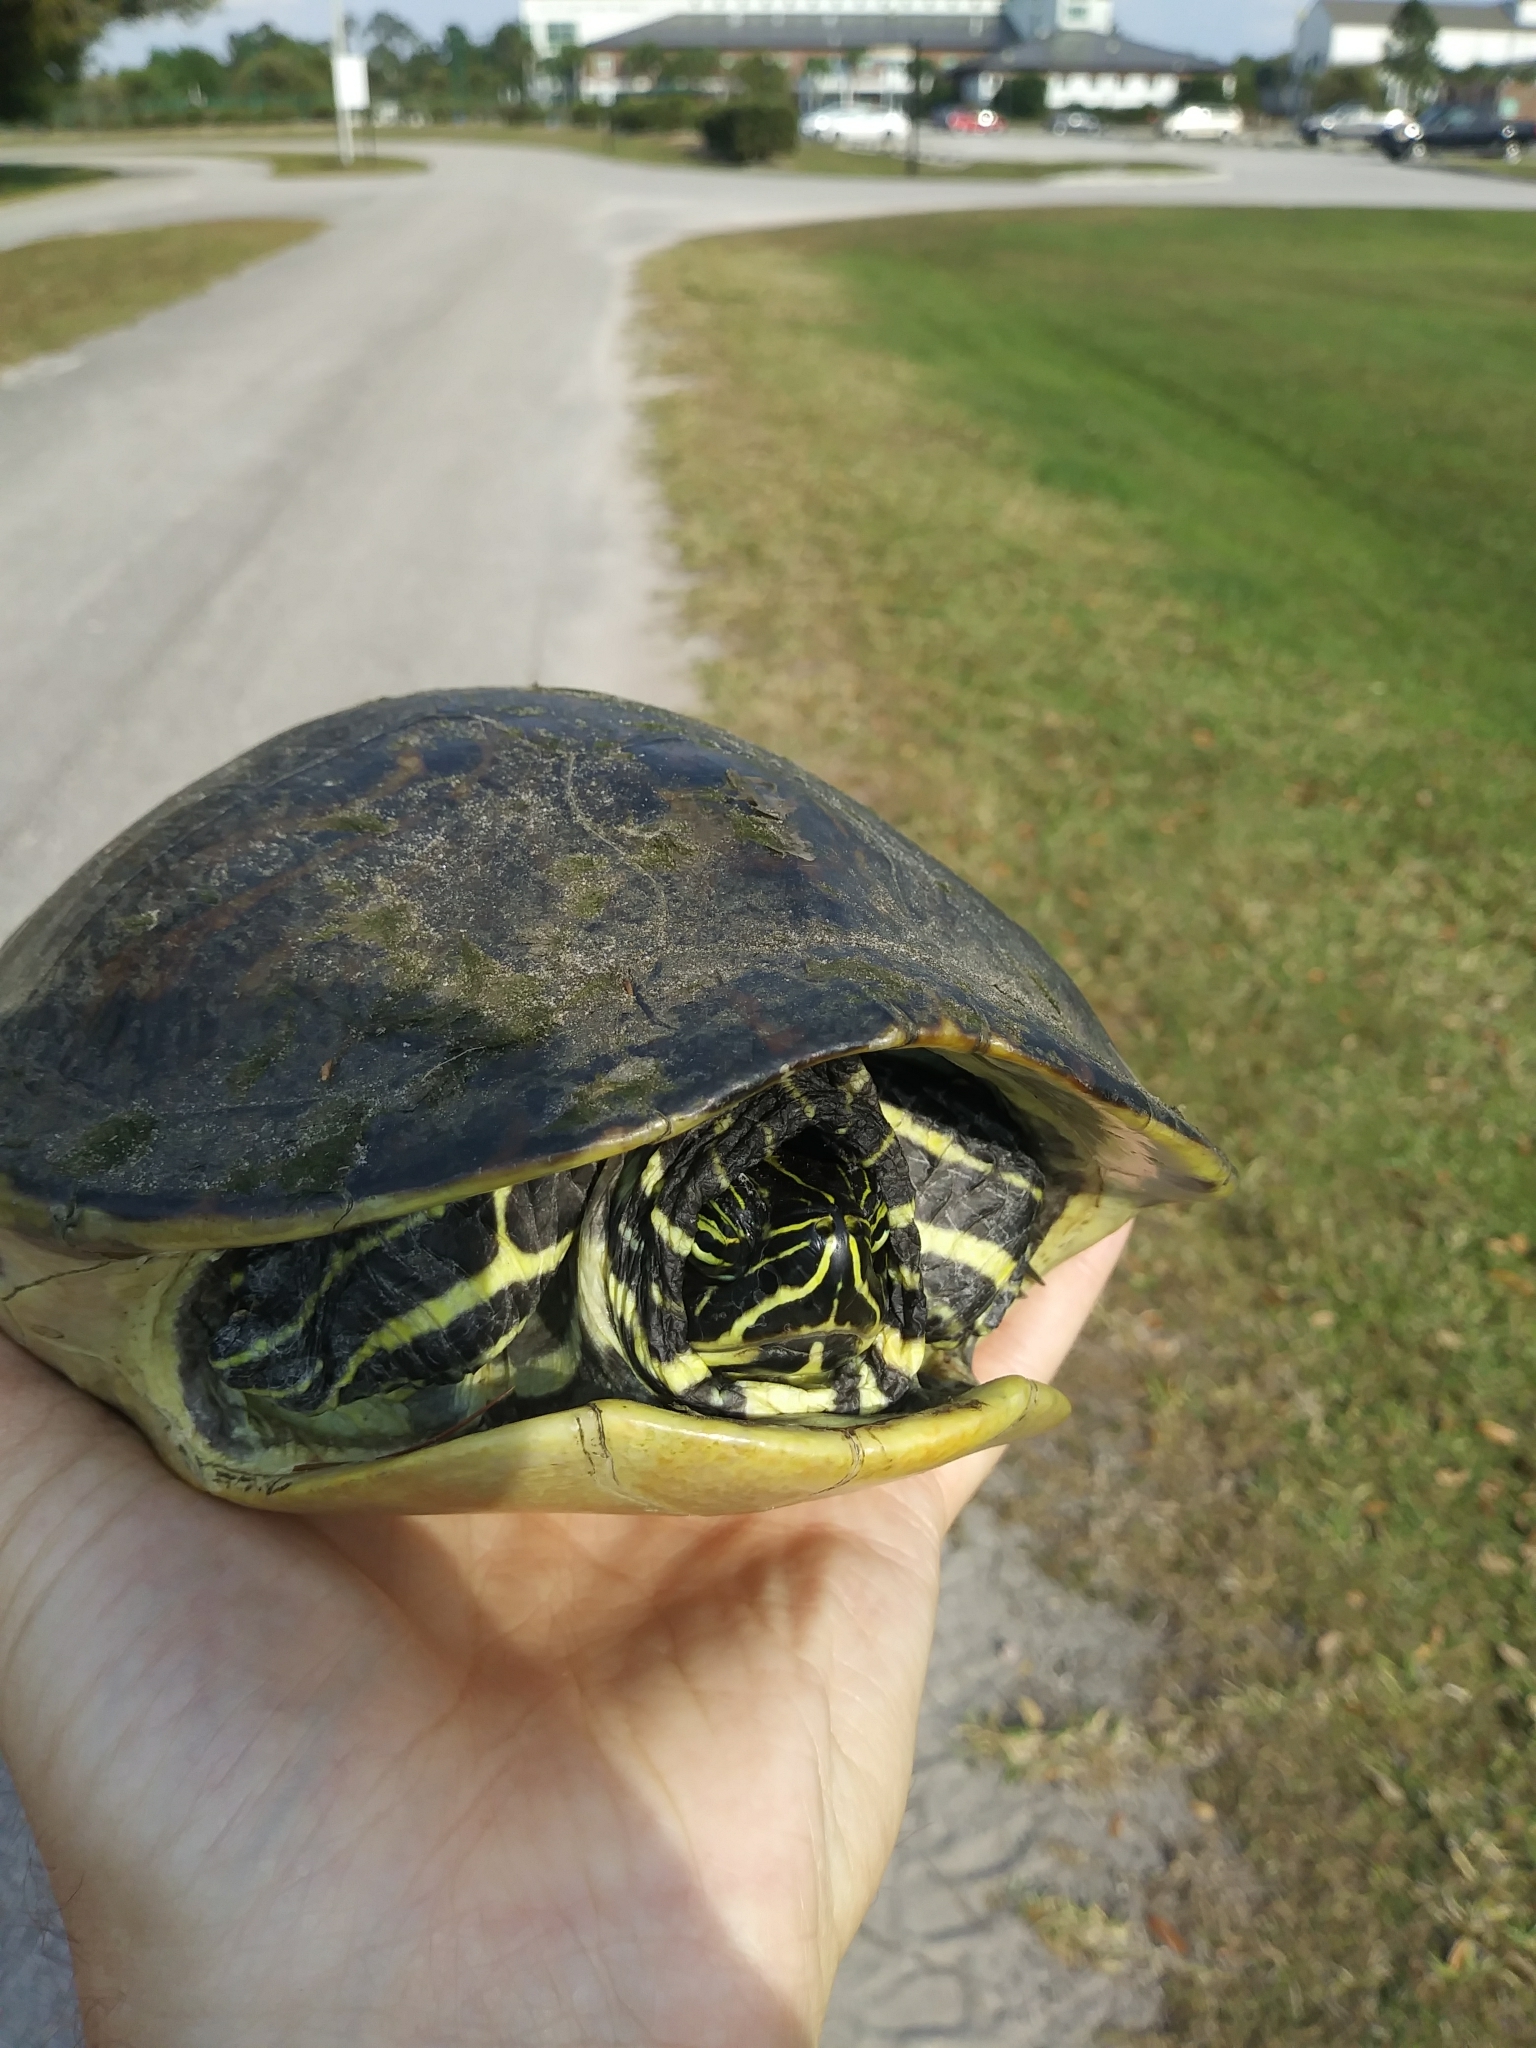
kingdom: Animalia
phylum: Chordata
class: Testudines
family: Emydidae
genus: Pseudemys
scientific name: Pseudemys peninsularis
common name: Peninsula cooter
